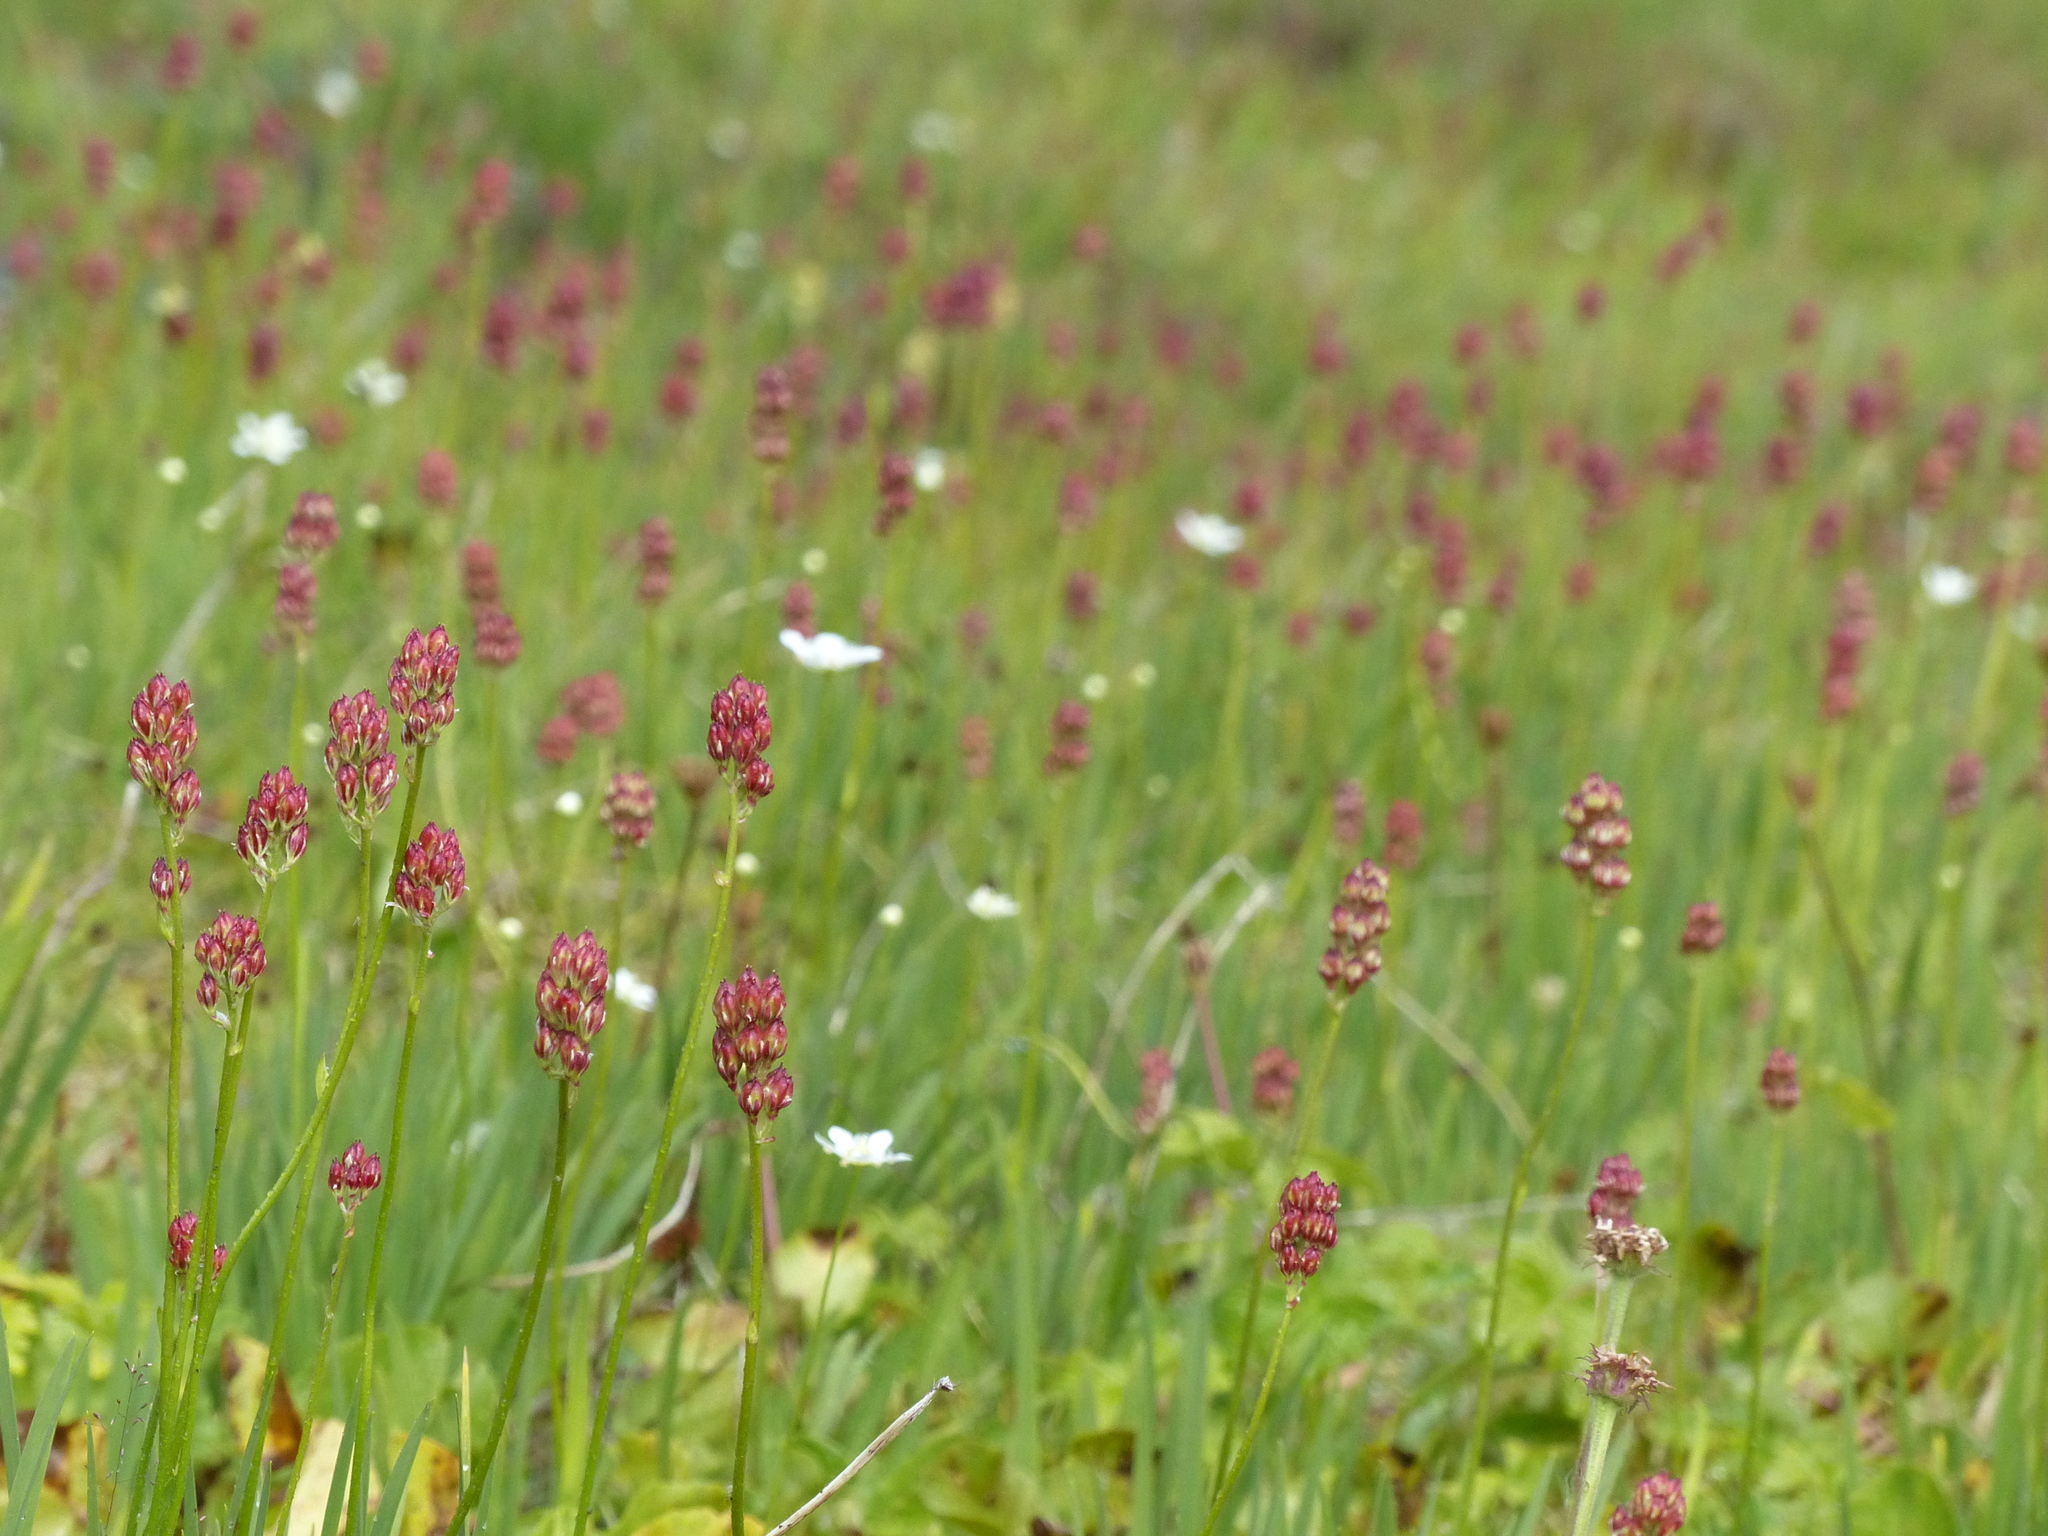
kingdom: Plantae
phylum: Tracheophyta
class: Liliopsida
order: Alismatales
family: Tofieldiaceae
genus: Triantha
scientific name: Triantha glutinosa
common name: Glutinous tofieldia
